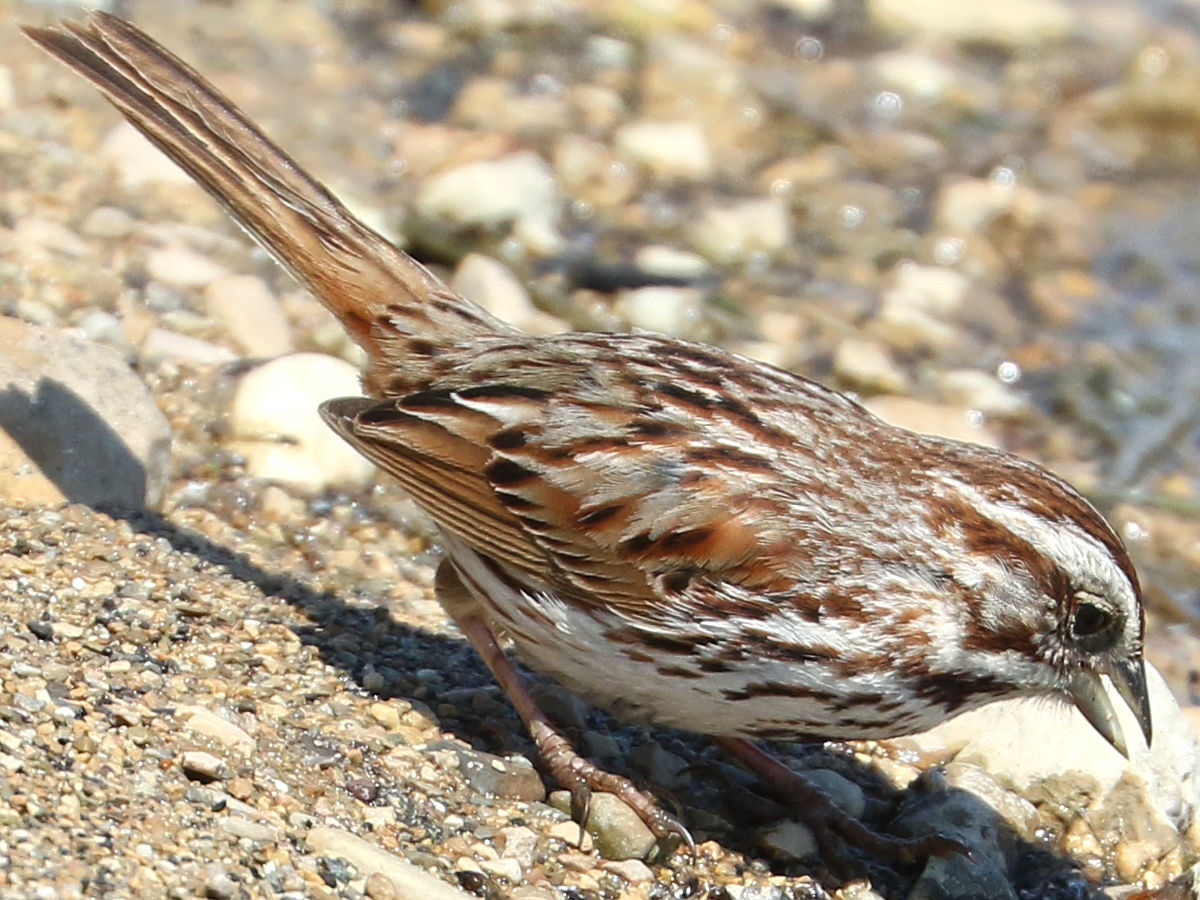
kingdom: Animalia
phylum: Chordata
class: Aves
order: Passeriformes
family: Passerellidae
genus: Melospiza
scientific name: Melospiza melodia
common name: Song sparrow
